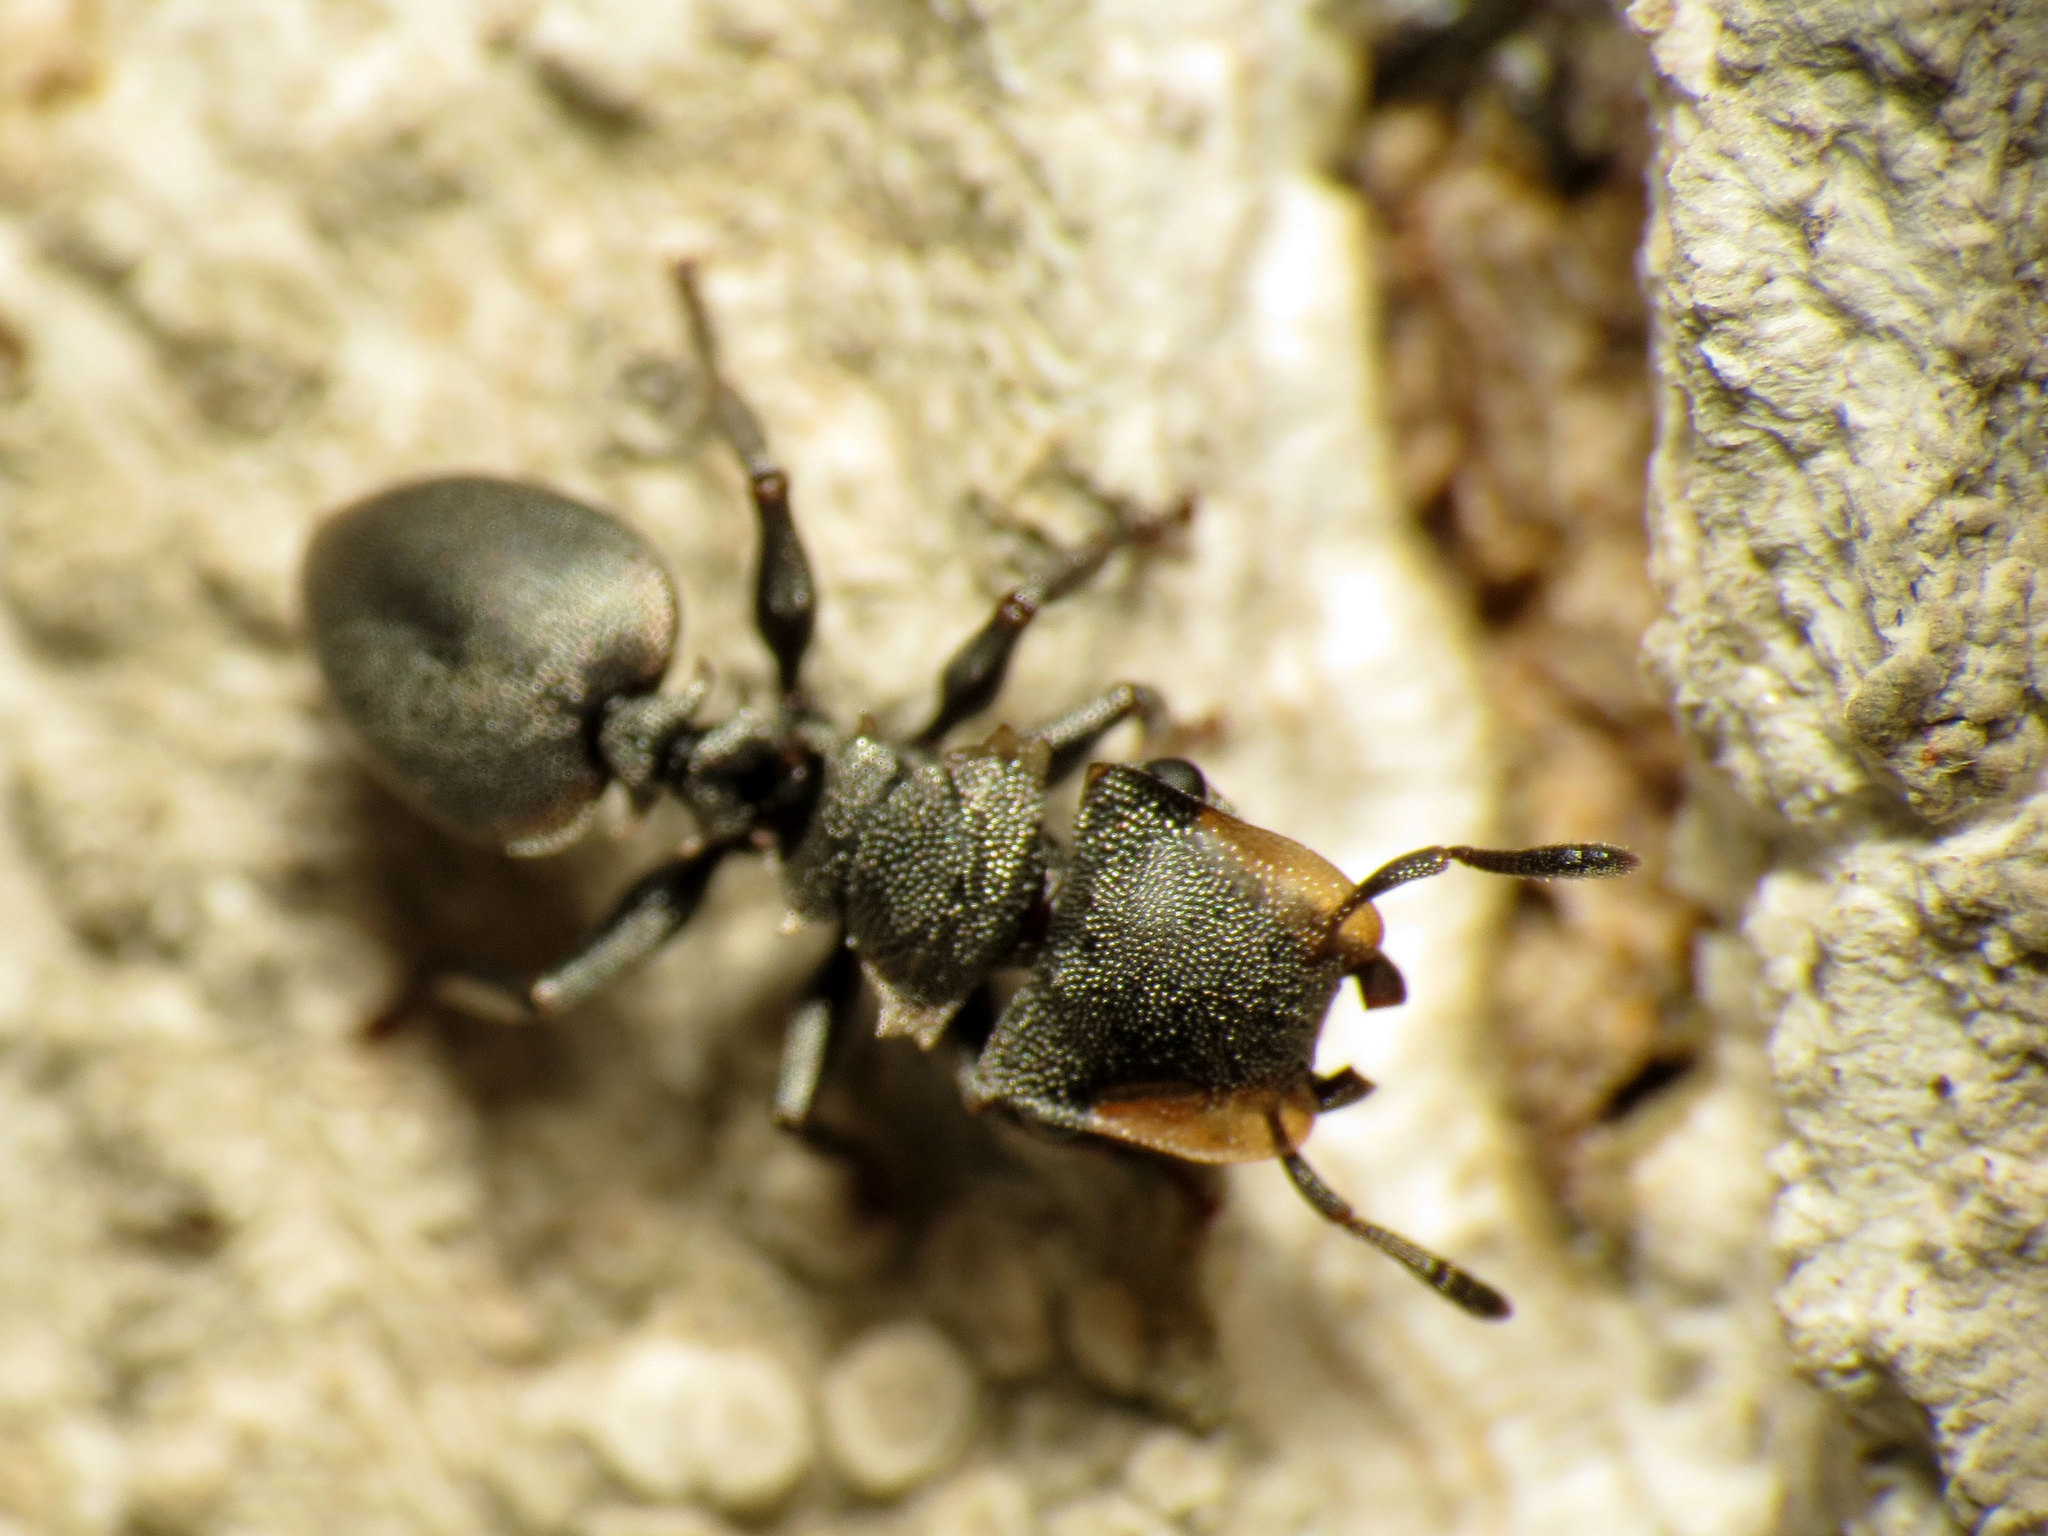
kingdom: Animalia
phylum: Arthropoda
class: Insecta
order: Hymenoptera
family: Formicidae
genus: Cephalotes
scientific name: Cephalotes multispinosus
